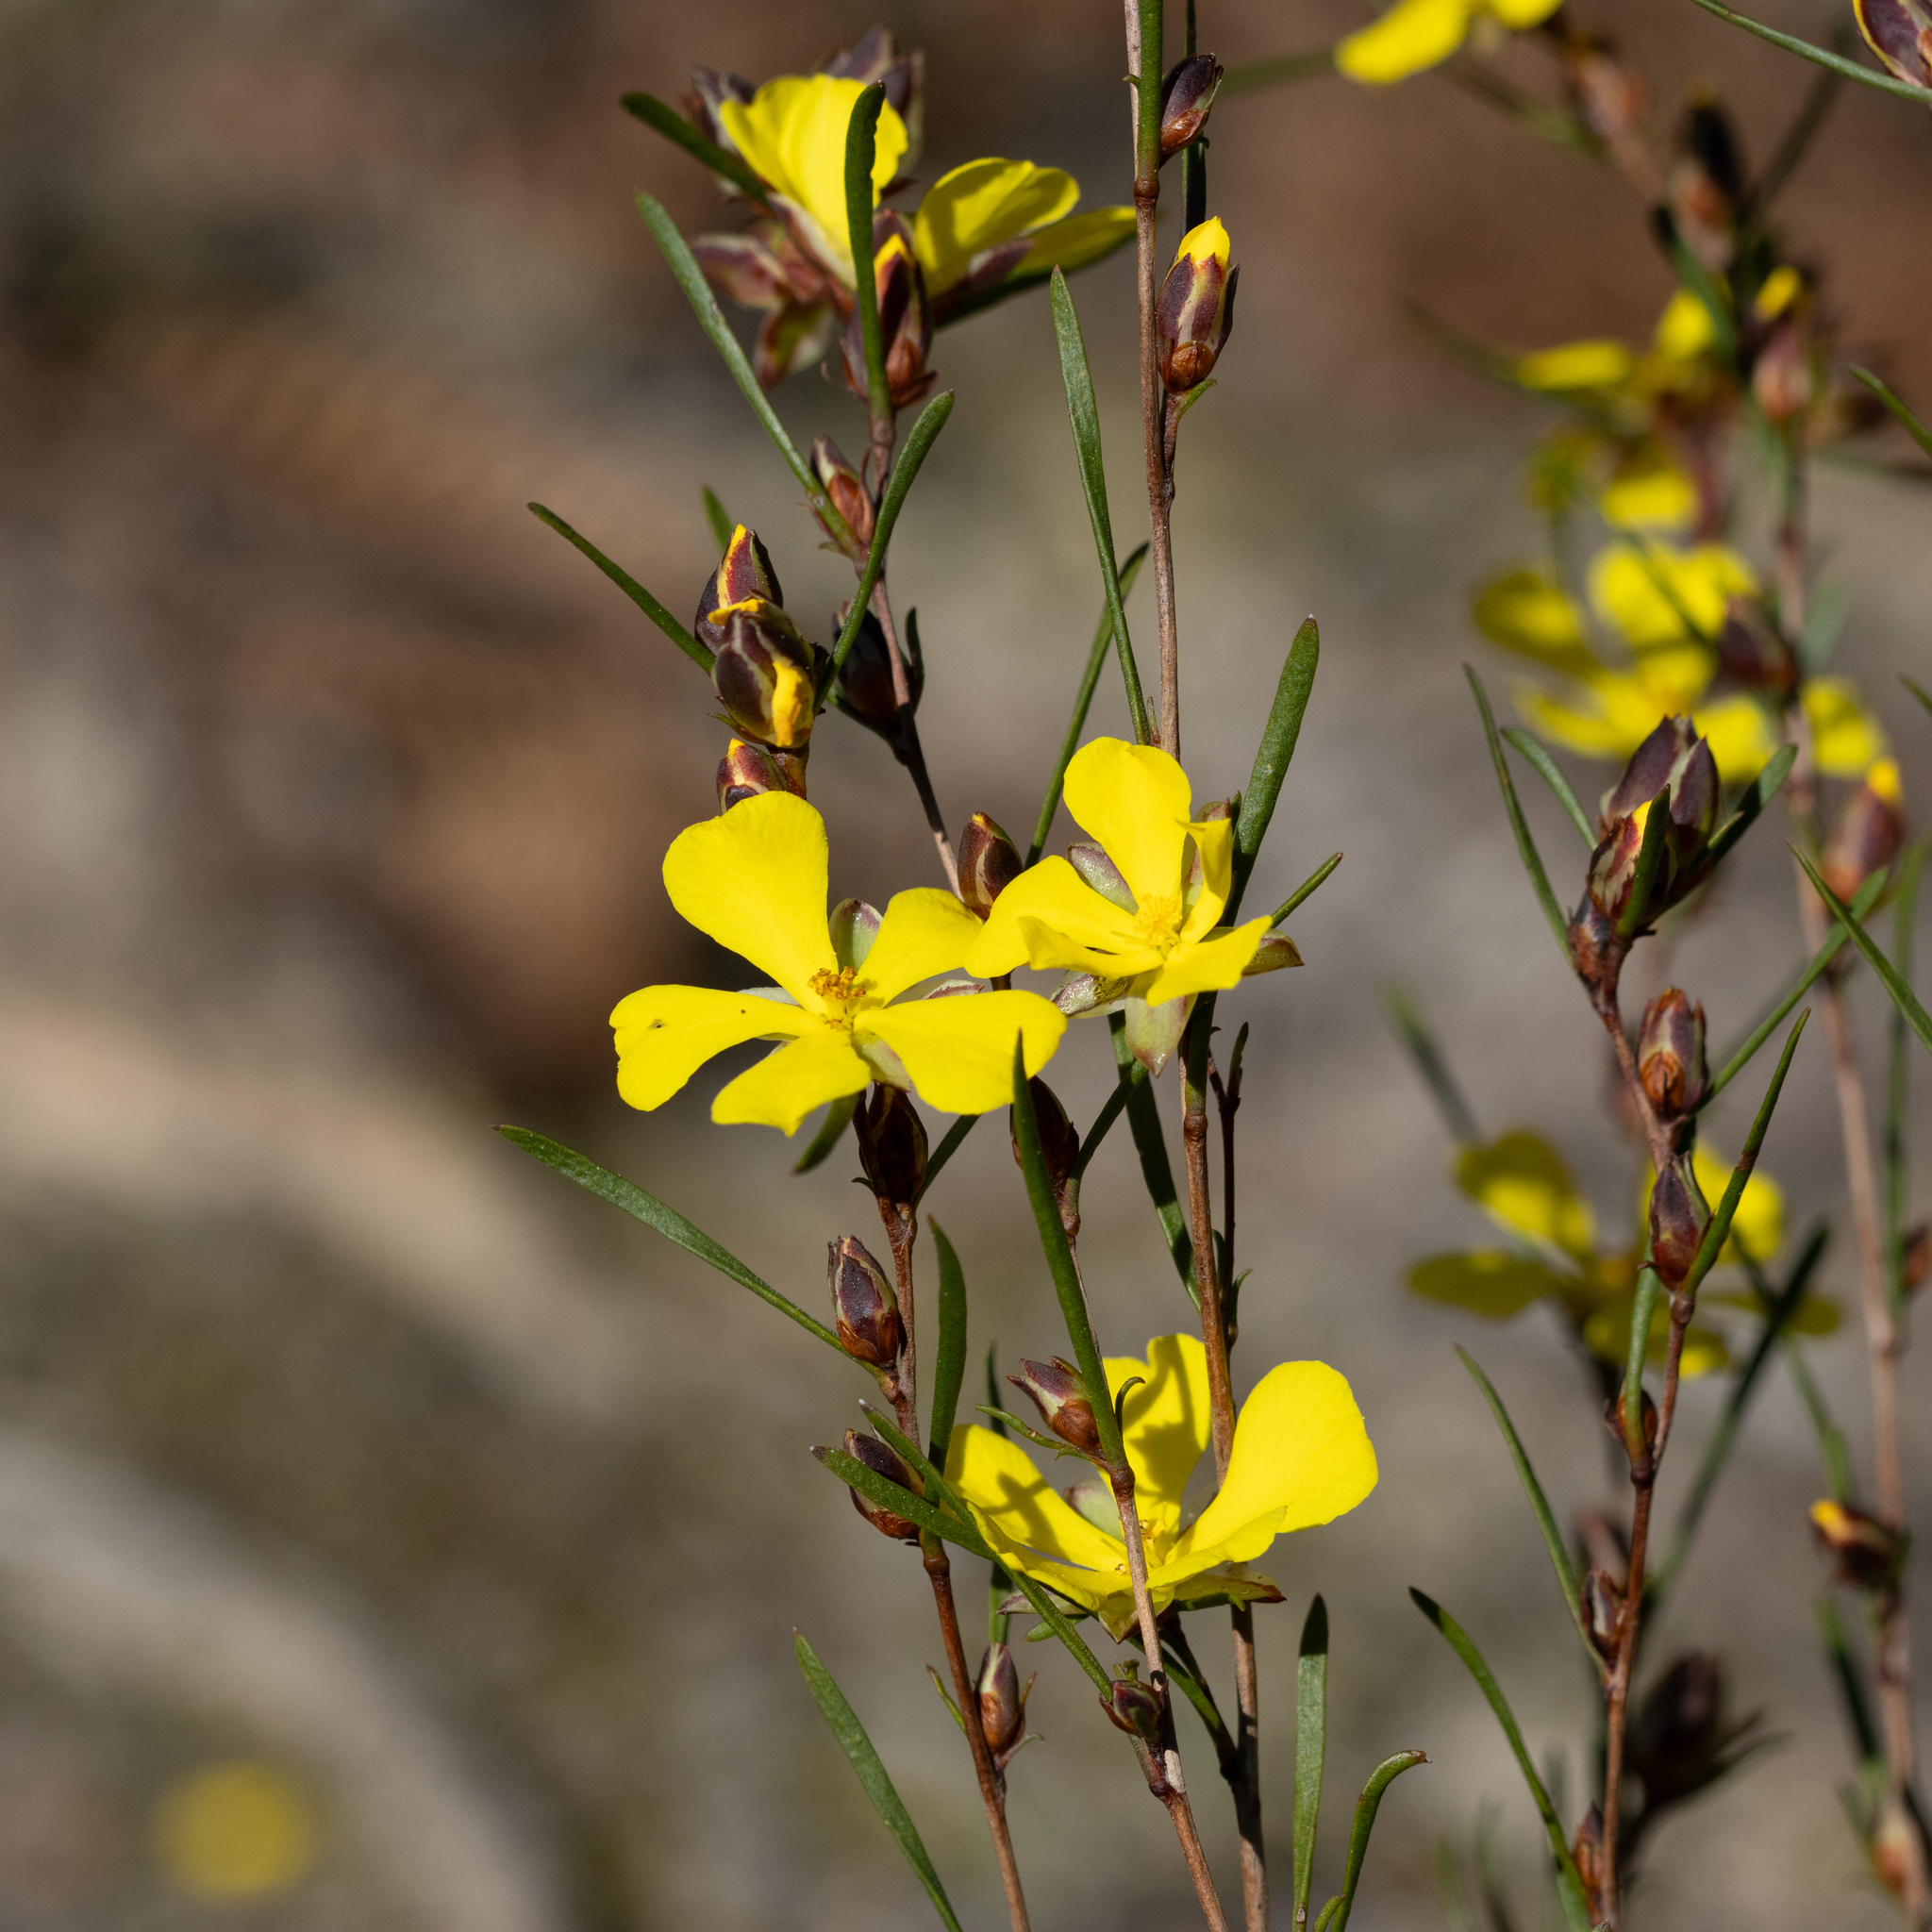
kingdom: Plantae
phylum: Tracheophyta
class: Magnoliopsida
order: Dilleniales
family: Dilleniaceae
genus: Hibbertia
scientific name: Hibbertia virgata
